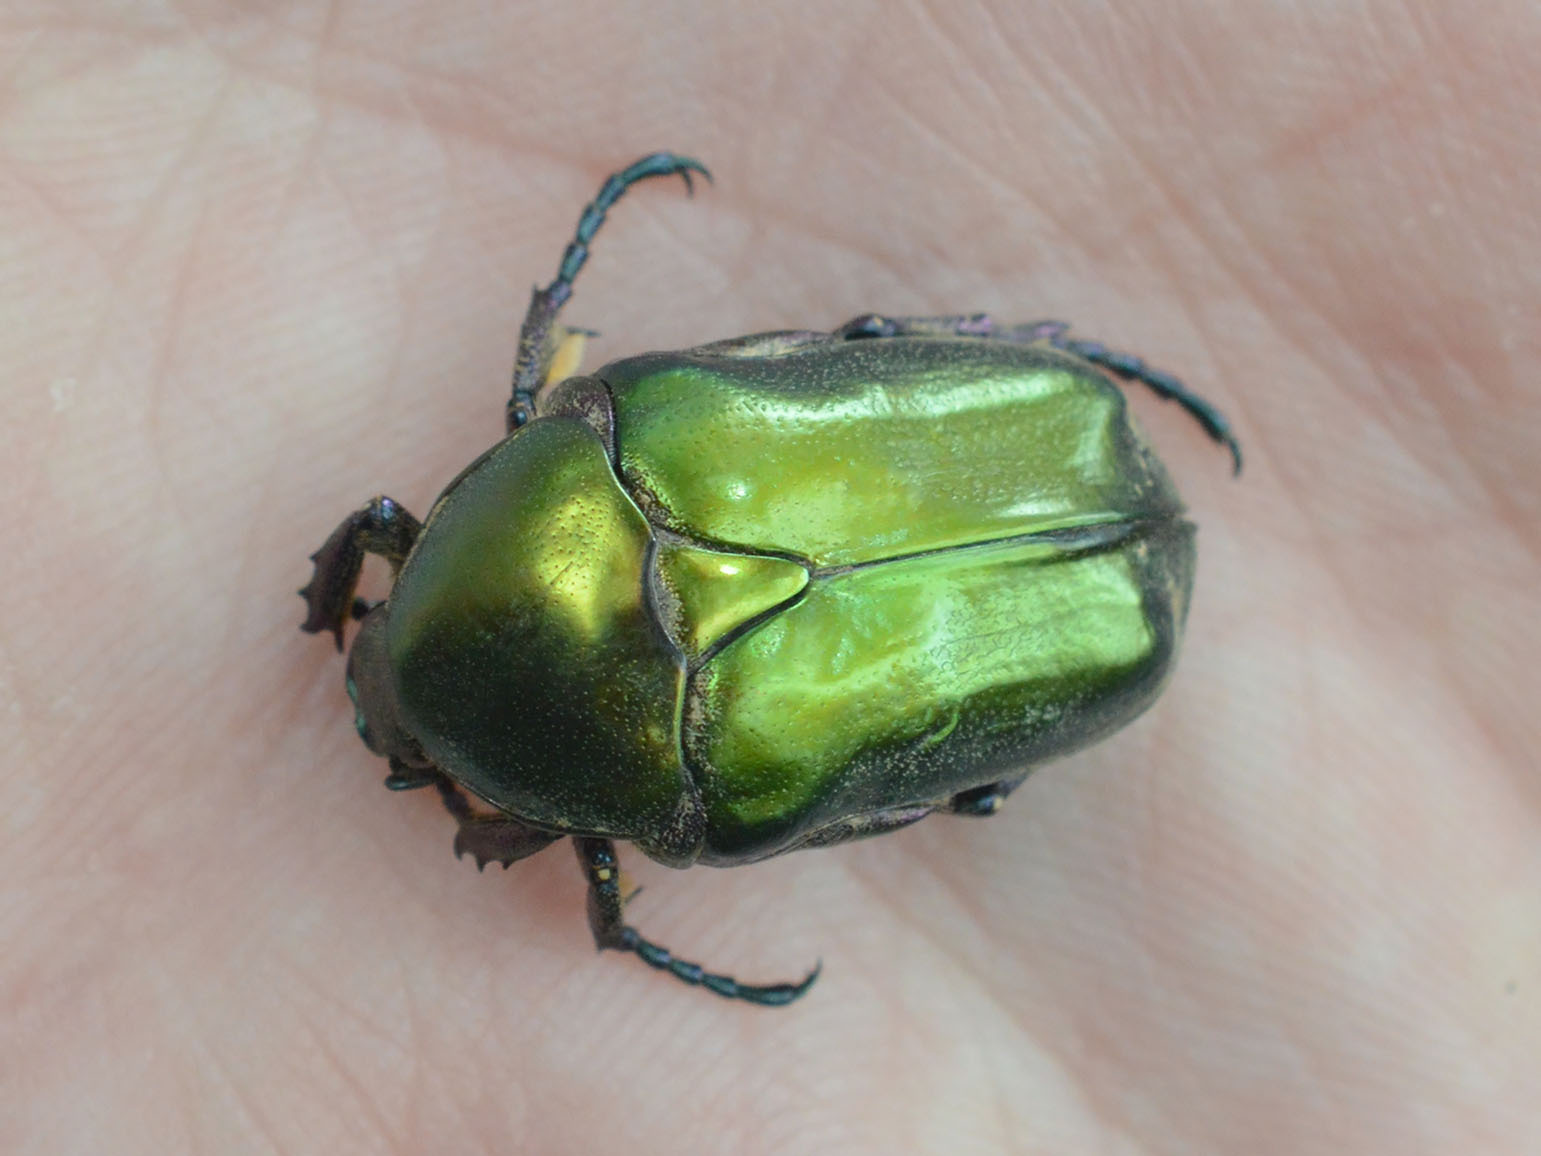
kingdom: Animalia
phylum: Arthropoda
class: Insecta
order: Coleoptera
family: Scarabaeidae
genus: Protaetia
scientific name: Protaetia cuprea
